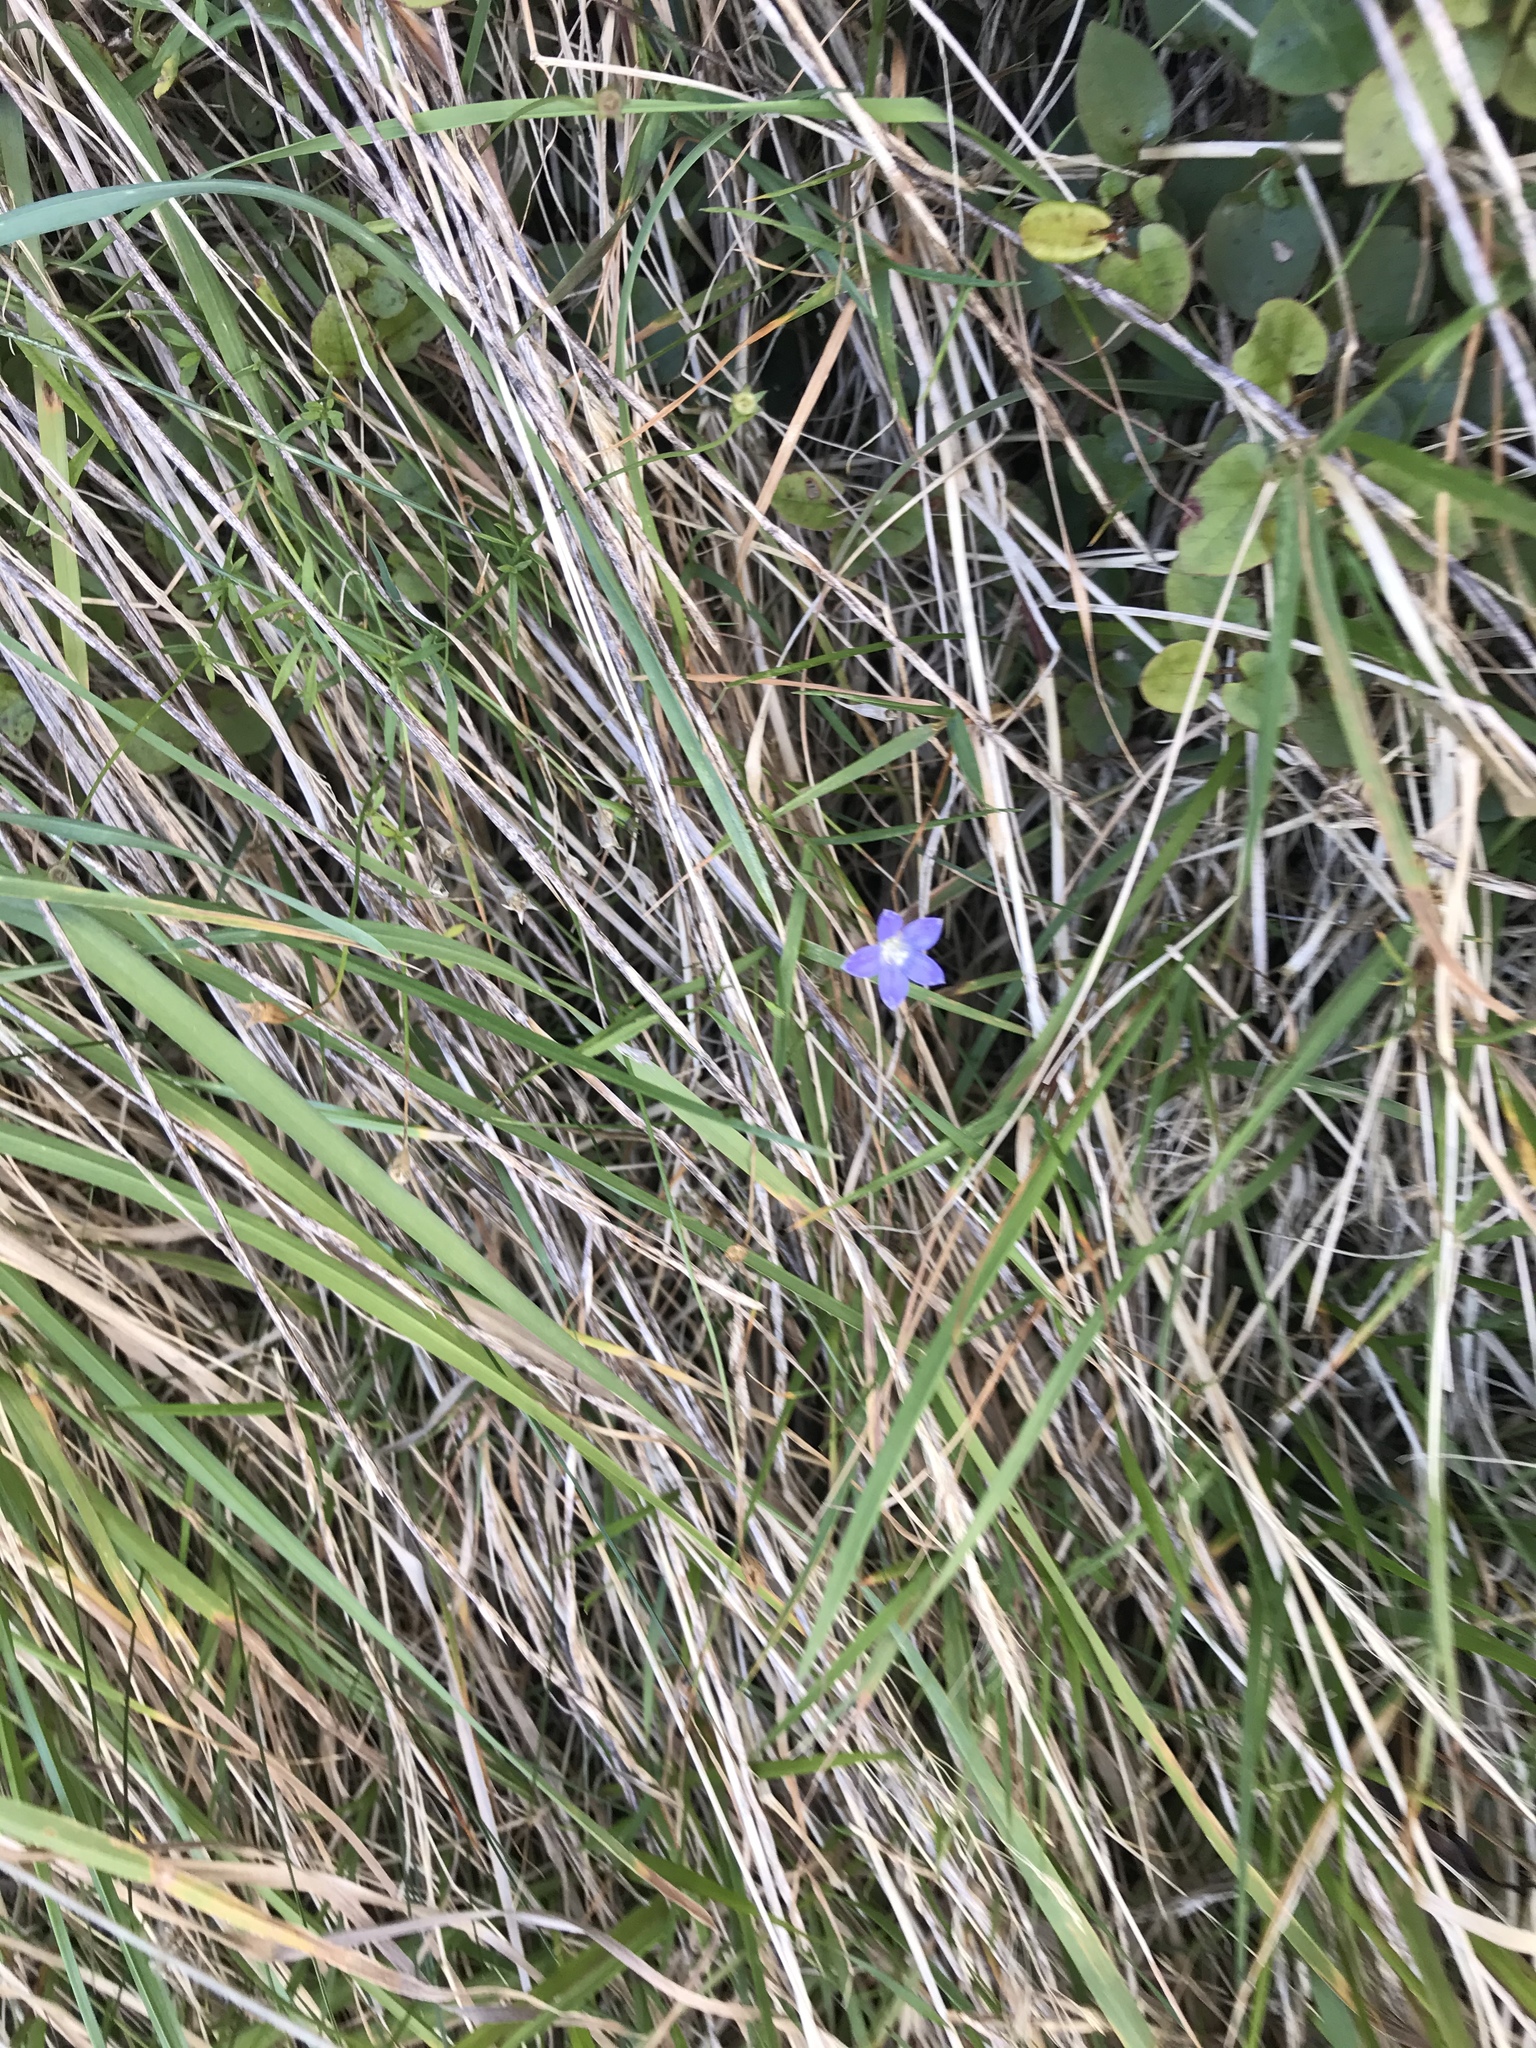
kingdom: Plantae
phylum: Tracheophyta
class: Magnoliopsida
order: Asterales
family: Campanulaceae
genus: Wahlenbergia
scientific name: Wahlenbergia violacea
